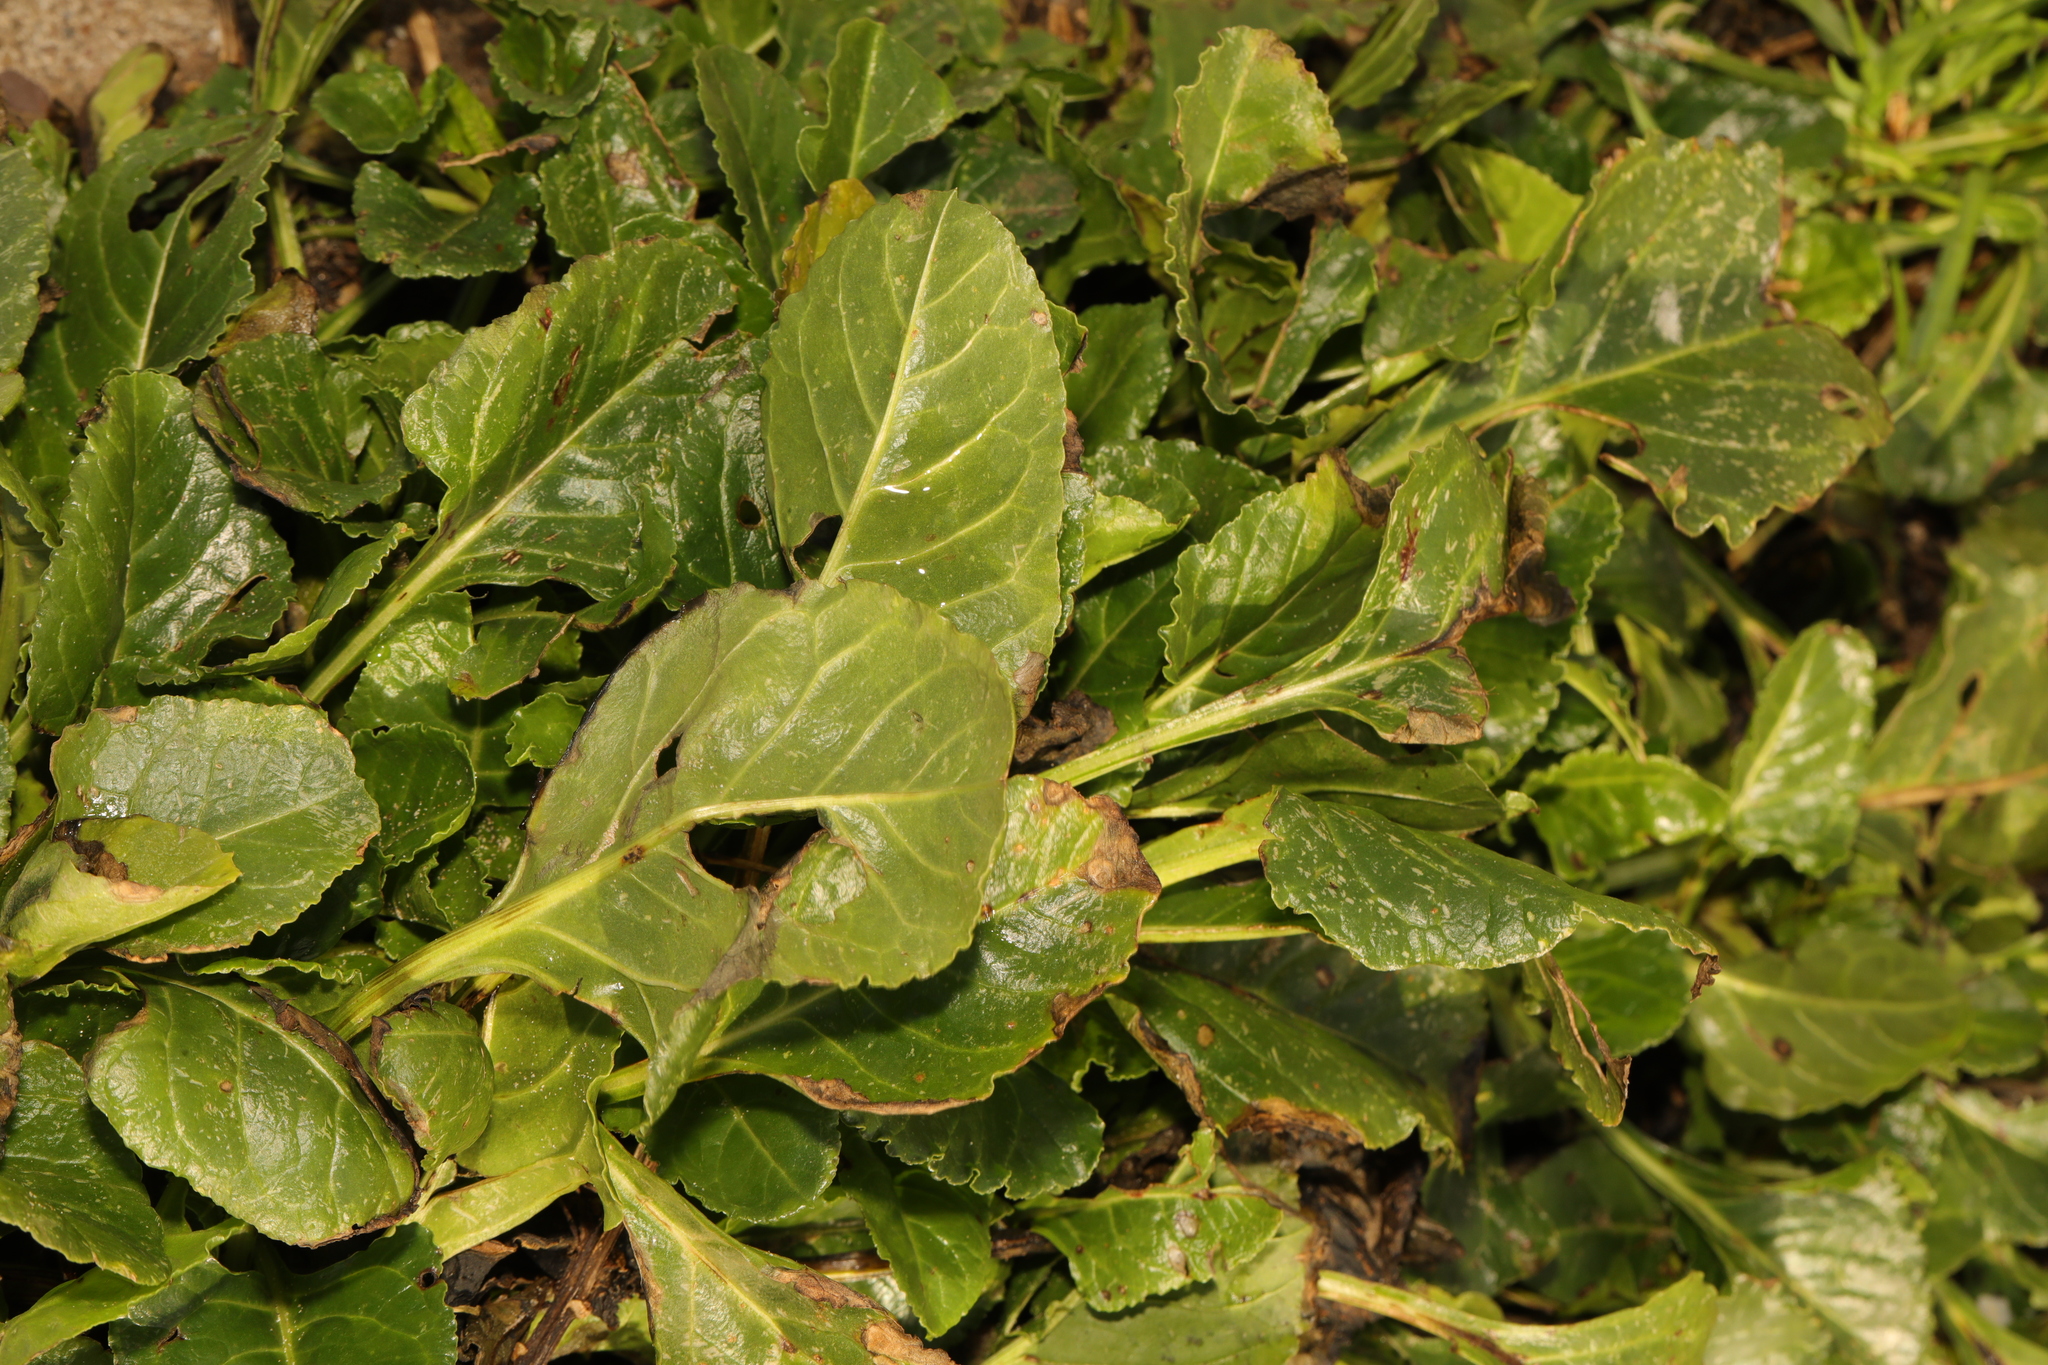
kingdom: Plantae
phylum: Tracheophyta
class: Magnoliopsida
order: Caryophyllales
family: Amaranthaceae
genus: Beta
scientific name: Beta vulgaris
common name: Beet
